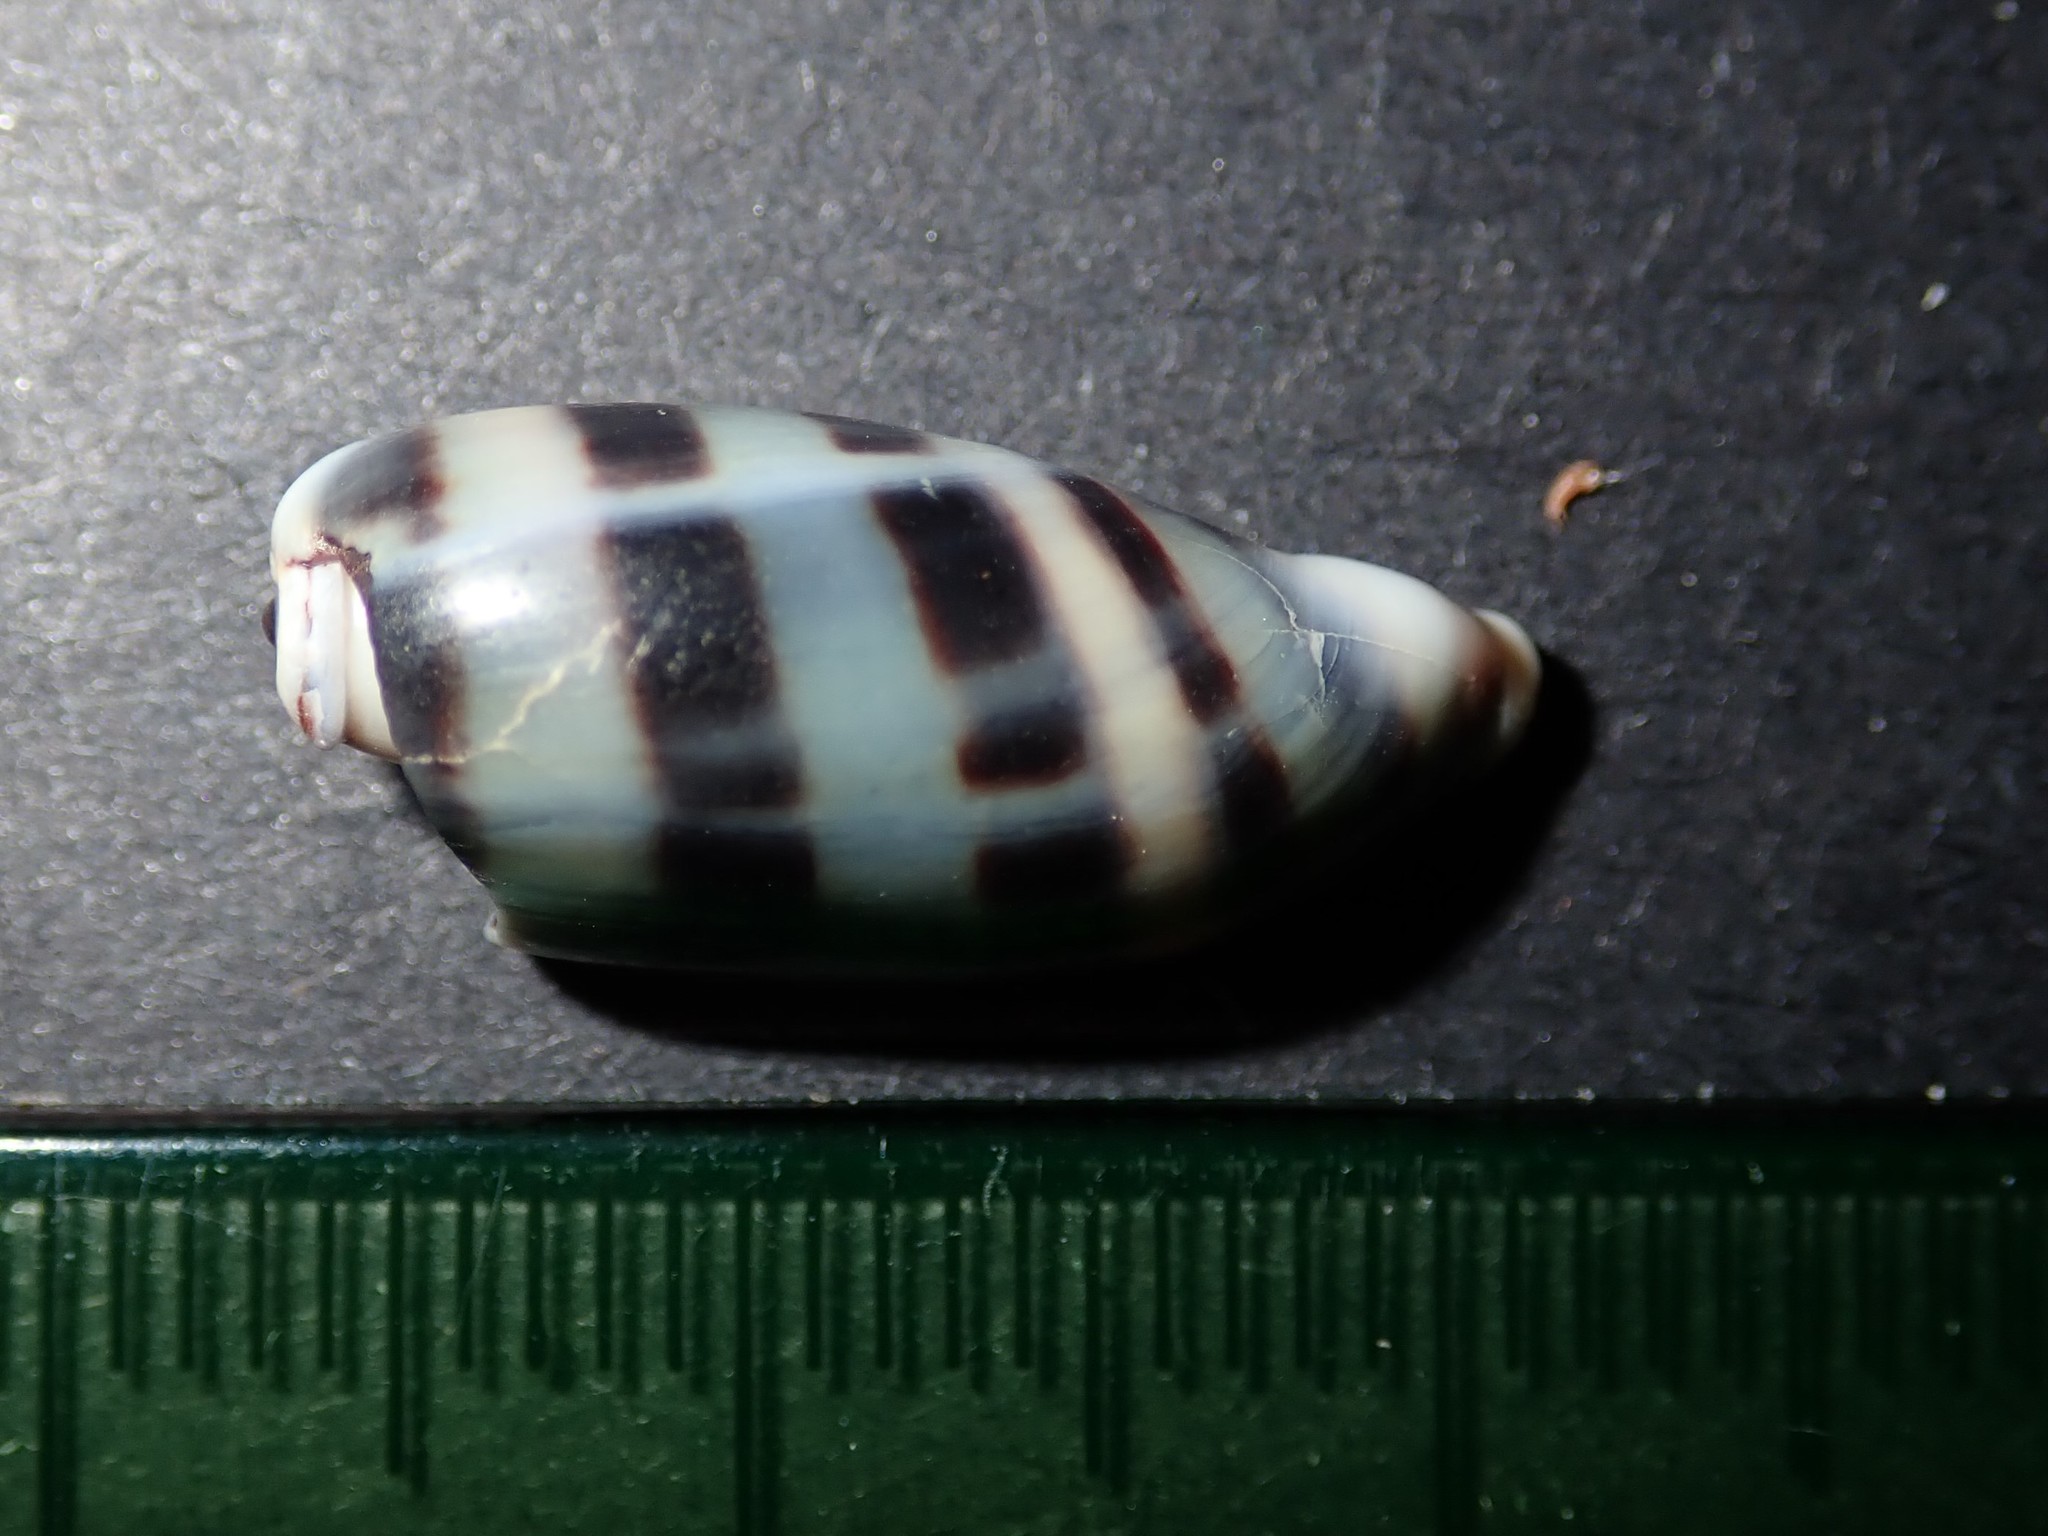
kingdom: Animalia
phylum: Mollusca
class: Gastropoda
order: Littorinimorpha
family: Cypraeidae
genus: Melicerona
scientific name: Melicerona listeri
